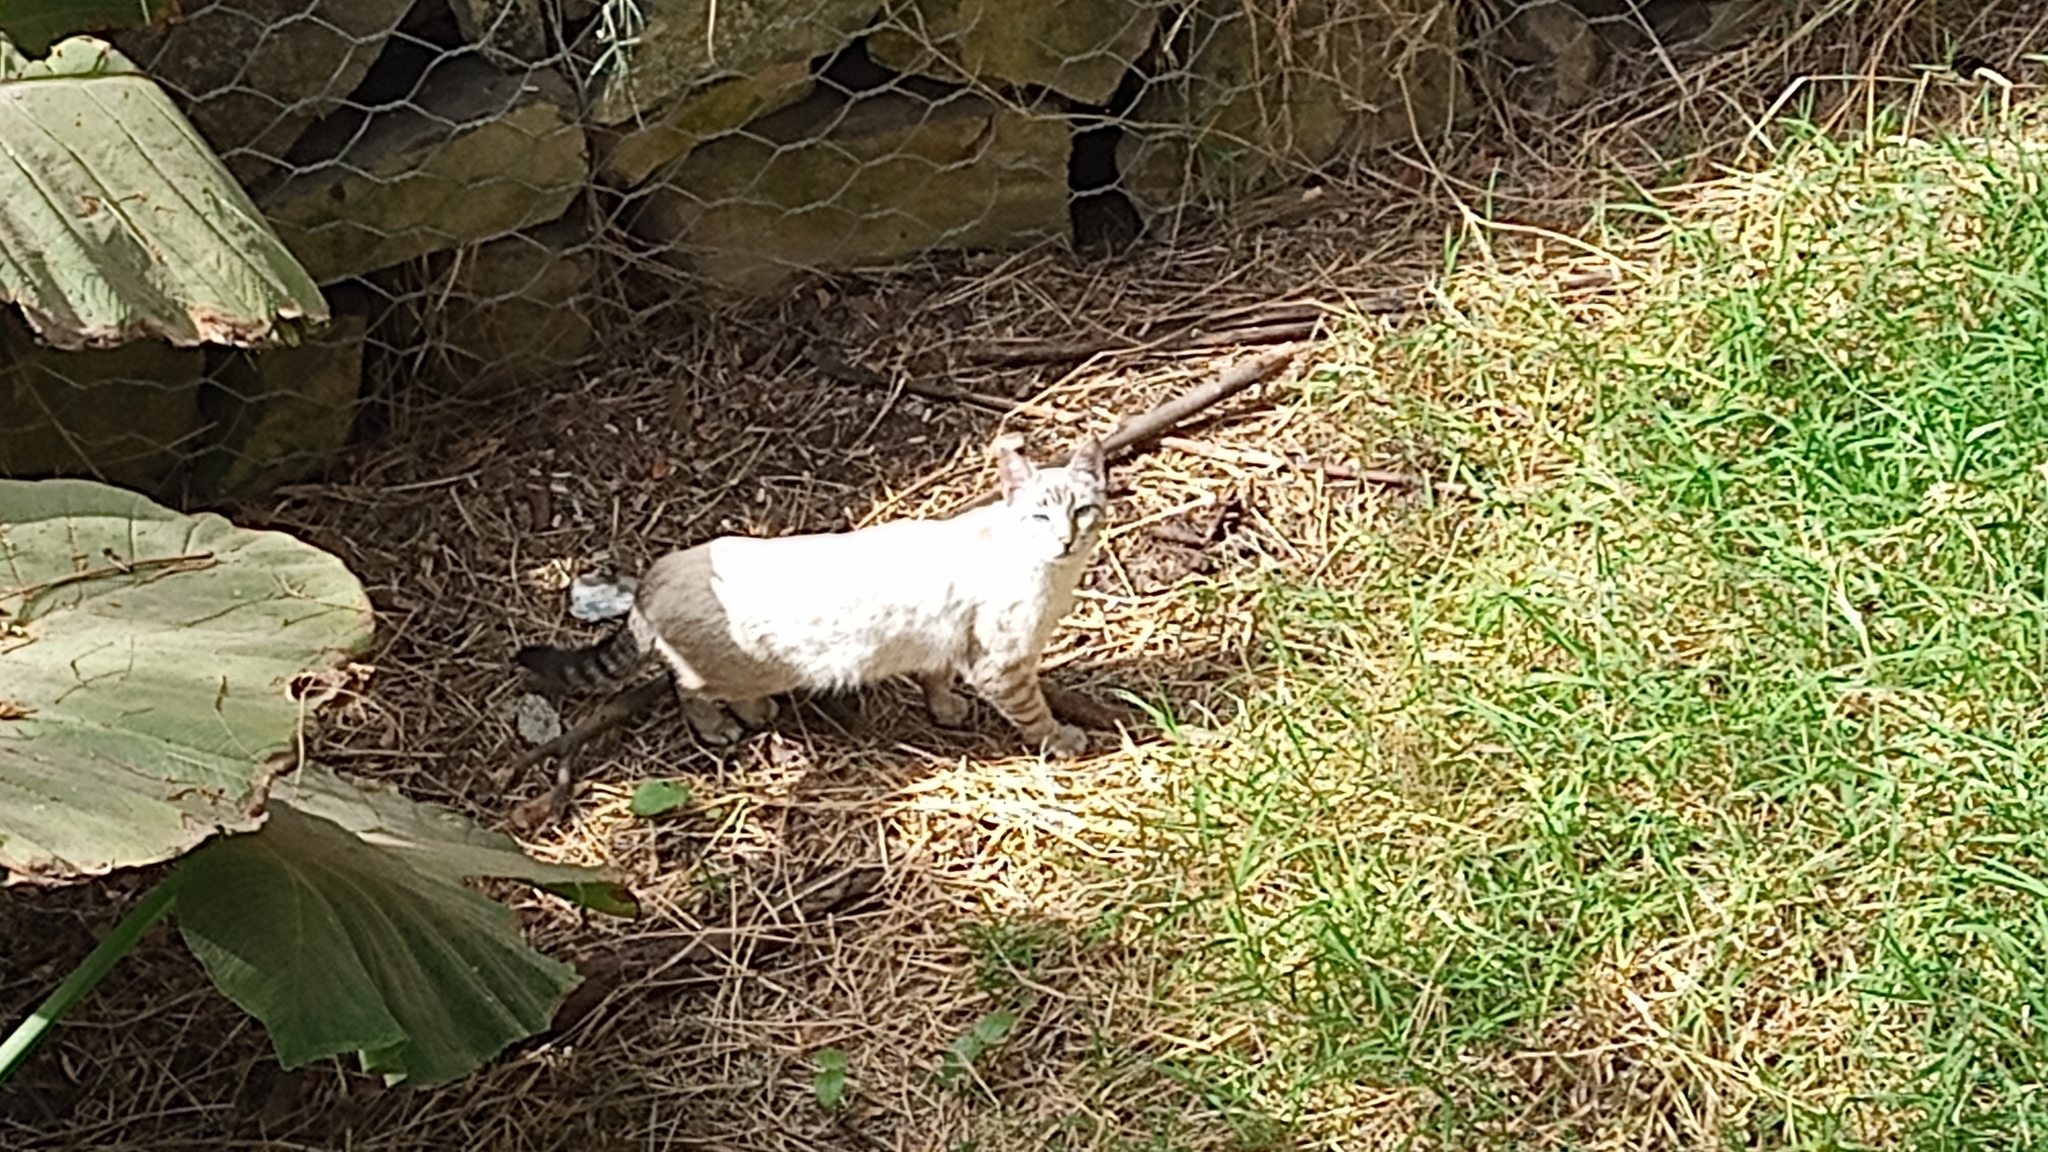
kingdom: Animalia
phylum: Chordata
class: Mammalia
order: Carnivora
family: Felidae
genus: Felis
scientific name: Felis catus
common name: Domestic cat
